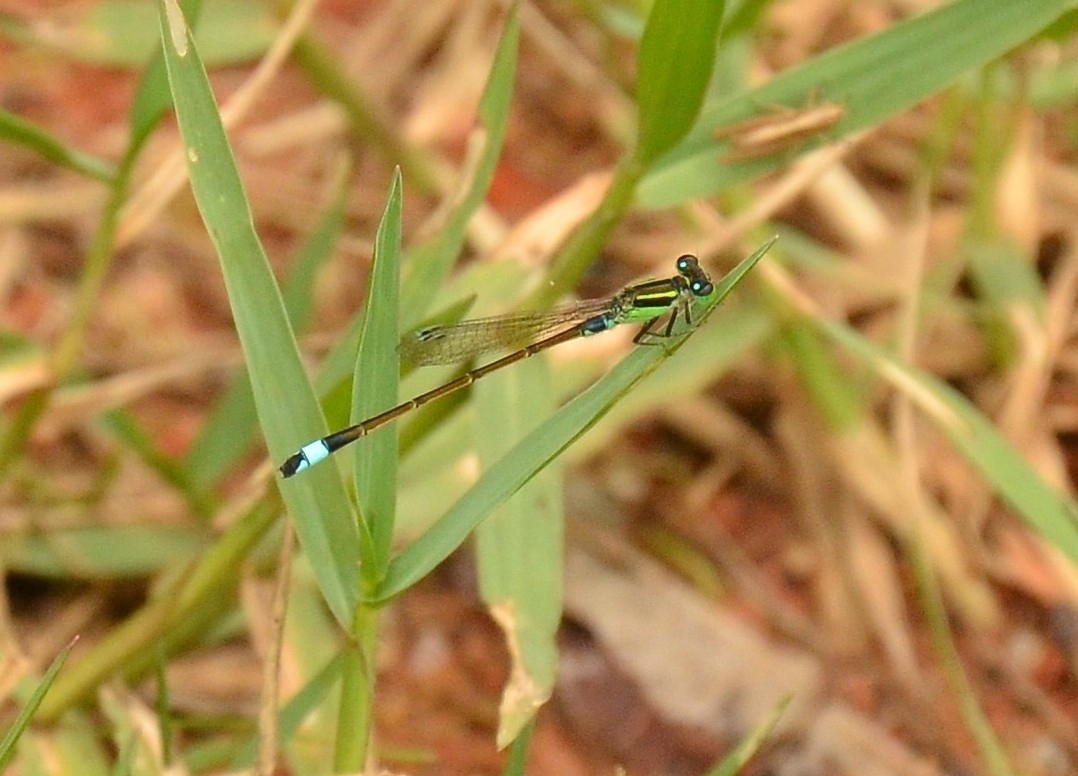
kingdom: Animalia
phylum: Arthropoda
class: Insecta
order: Odonata
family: Coenagrionidae
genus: Ischnura
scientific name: Ischnura senegalensis
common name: Tropical bluetail
